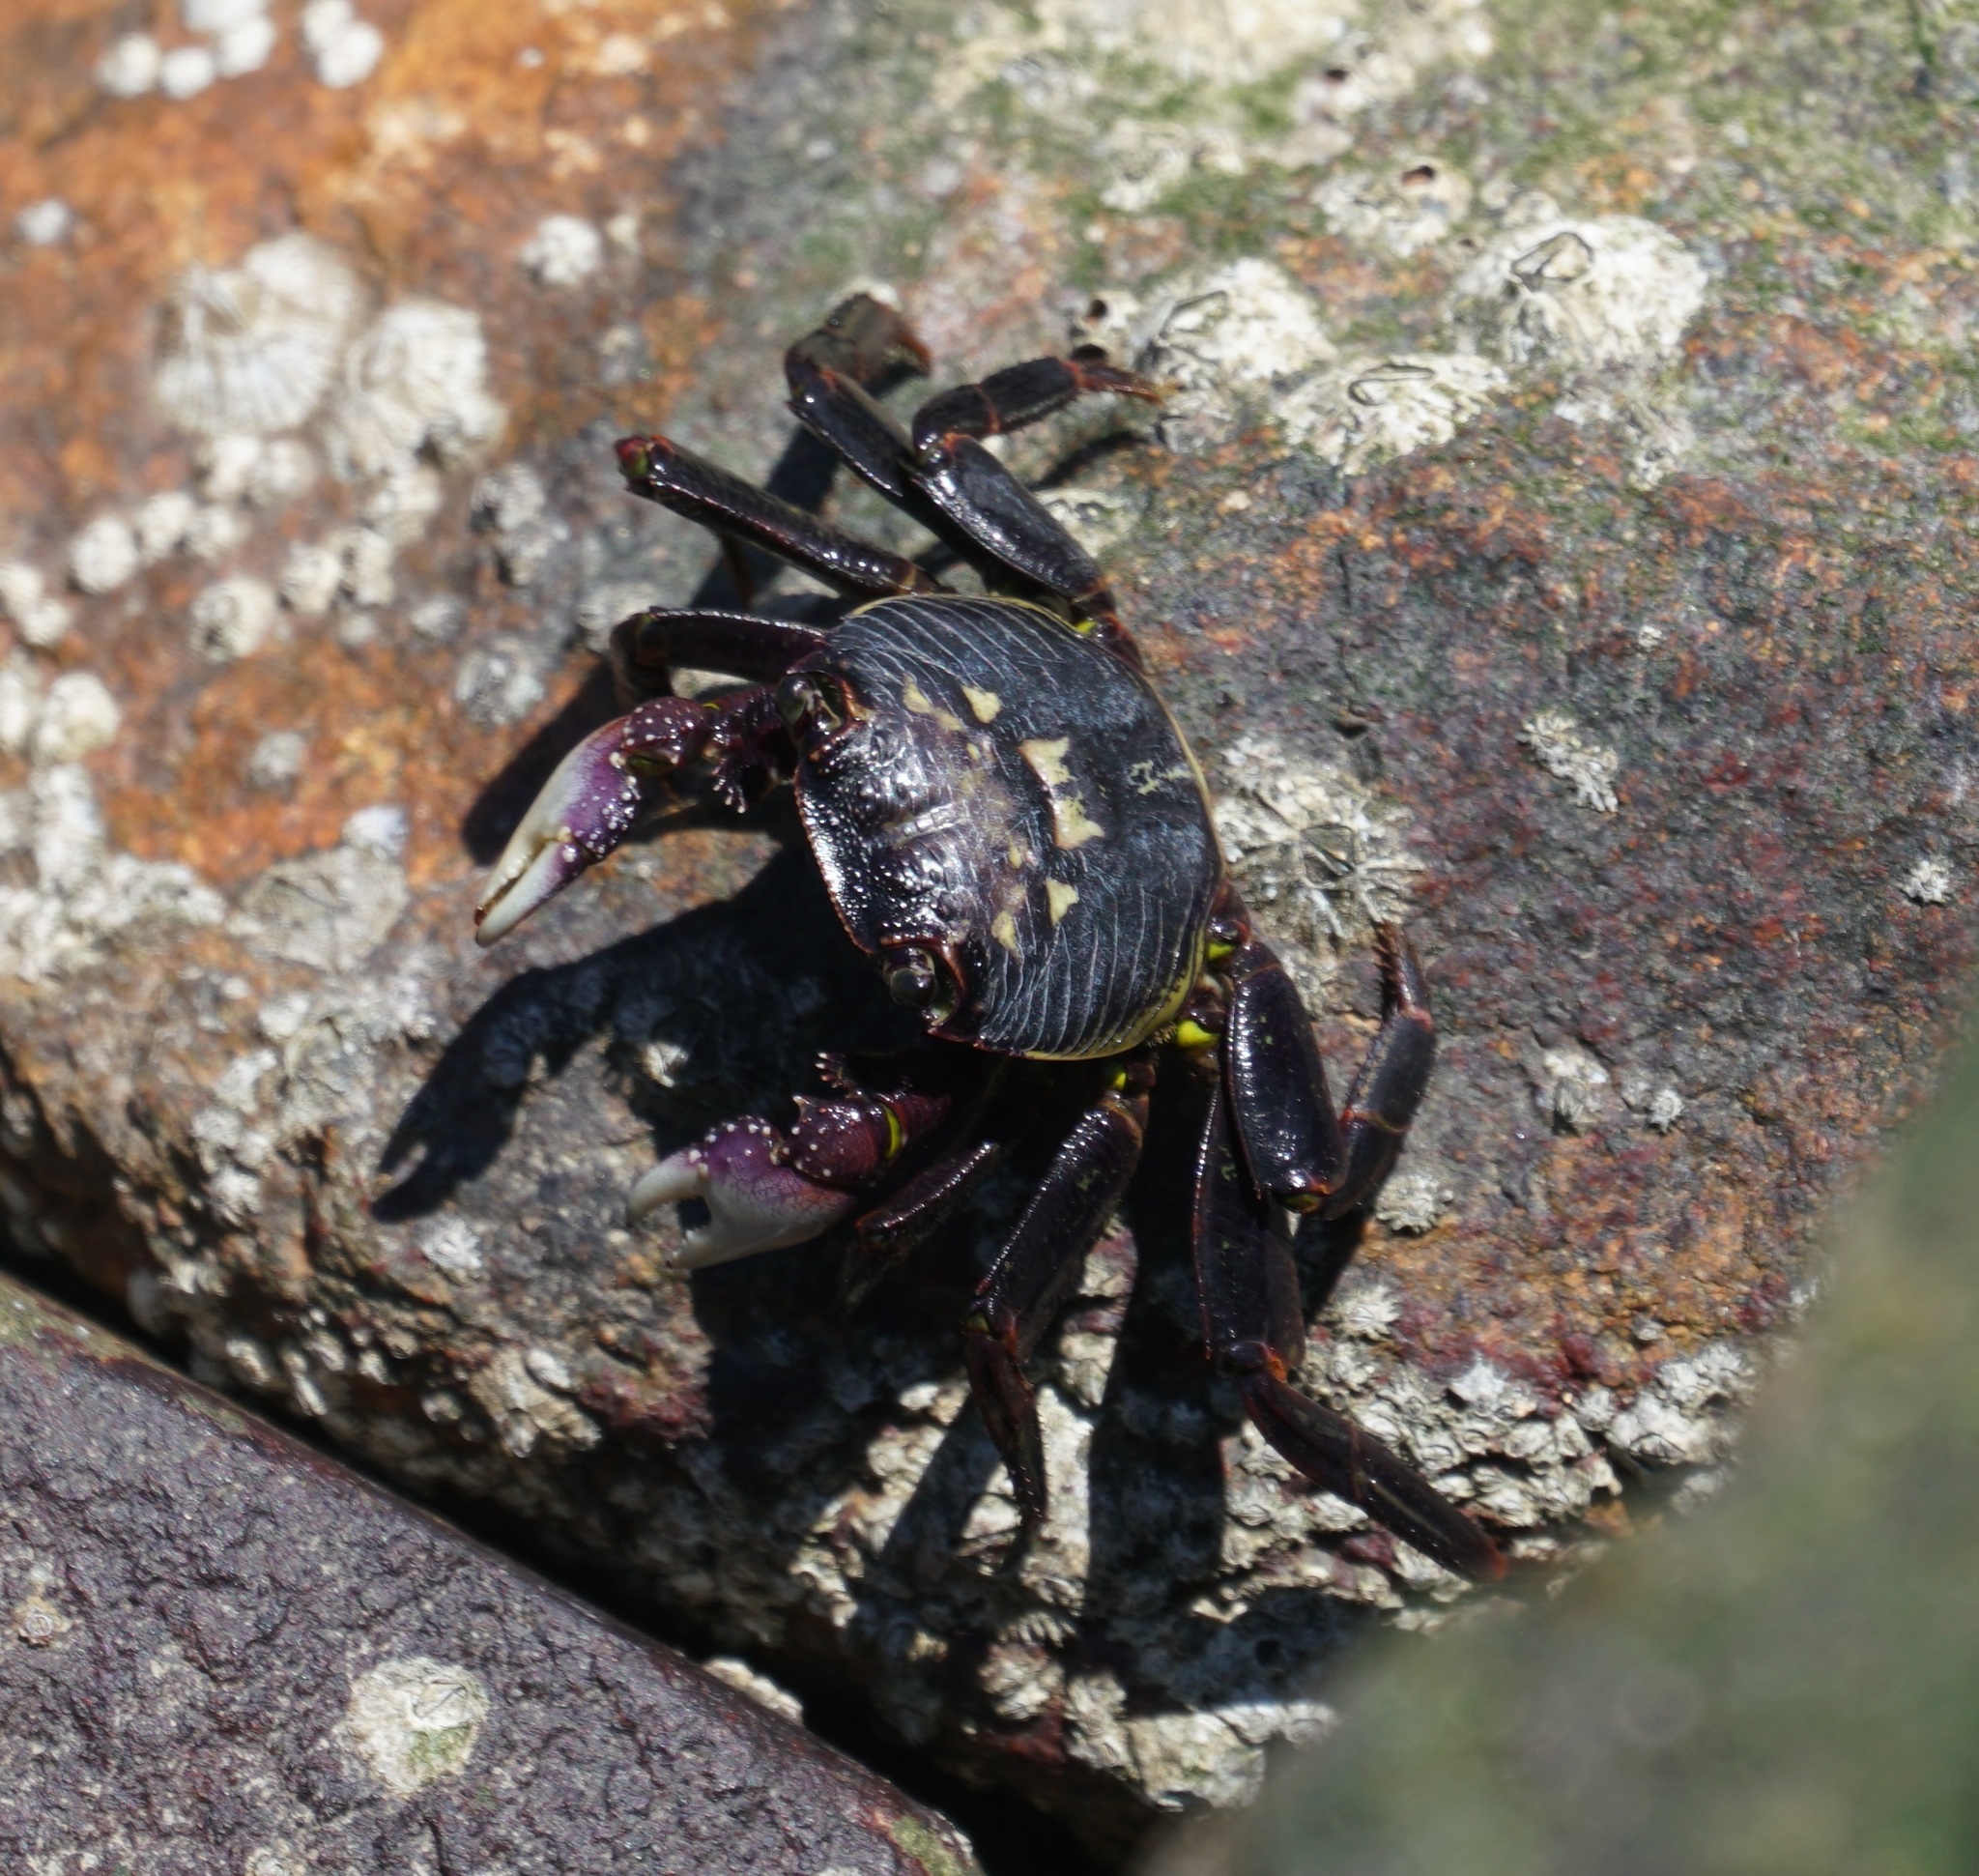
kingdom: Animalia
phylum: Arthropoda
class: Malacostraca
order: Decapoda
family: Grapsidae
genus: Leptograpsus
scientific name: Leptograpsus variegatus
